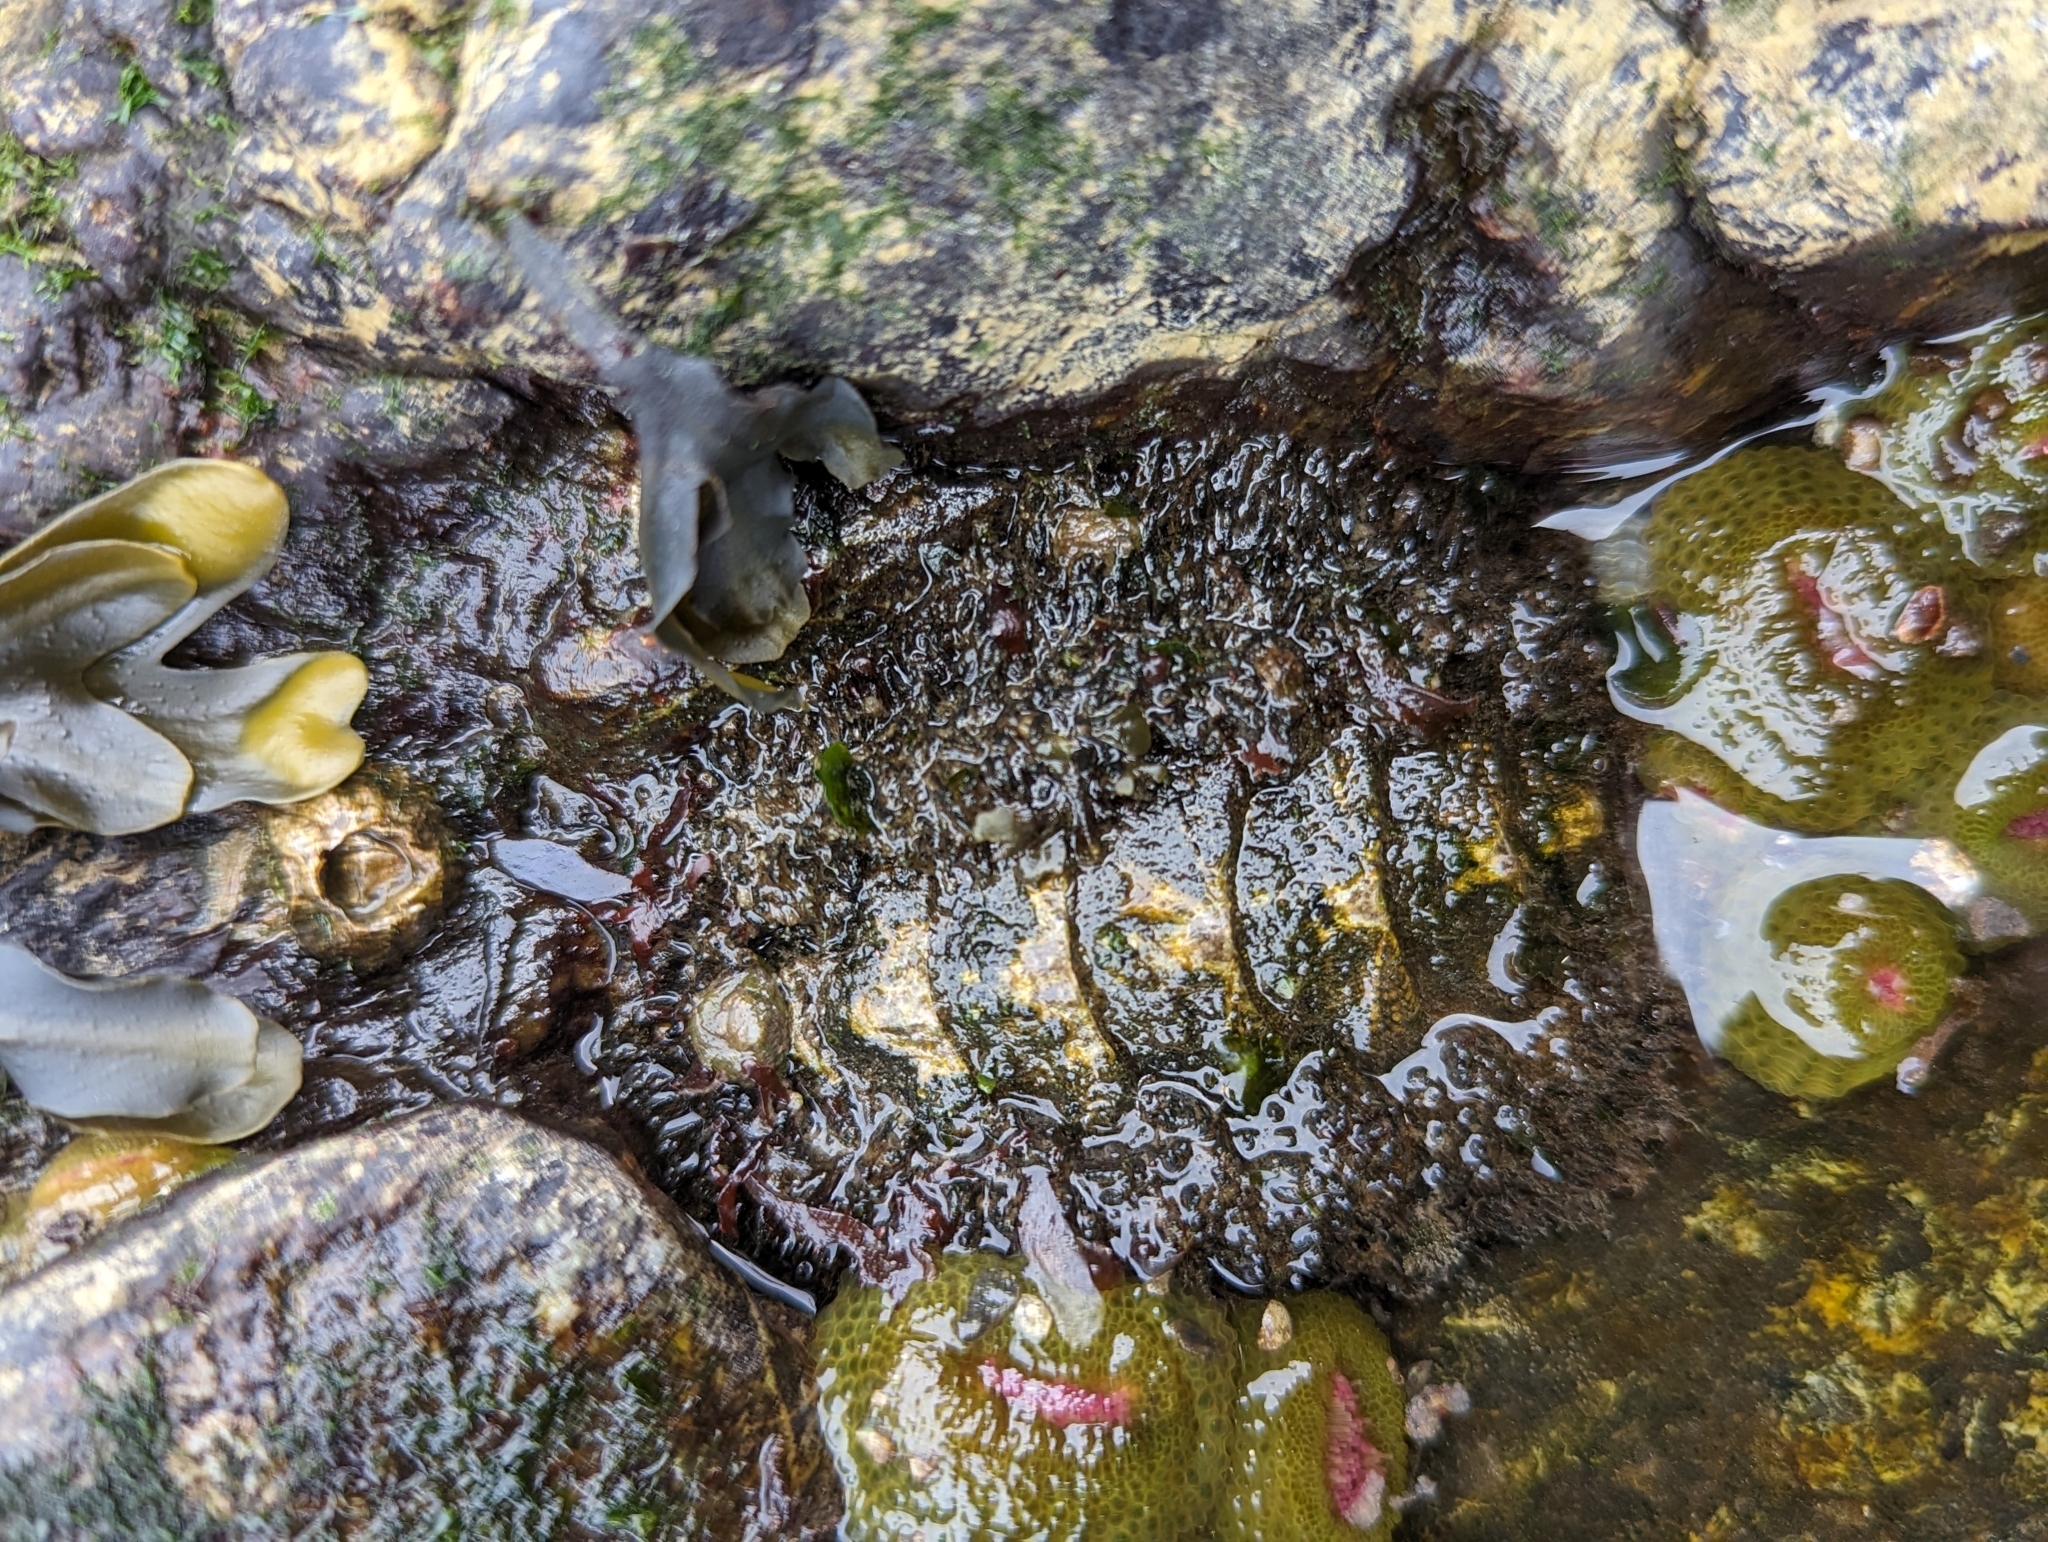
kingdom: Animalia
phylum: Mollusca
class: Polyplacophora
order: Chitonida
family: Mopaliidae
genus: Mopalia
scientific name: Mopalia muscosa
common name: Mossy chiton
